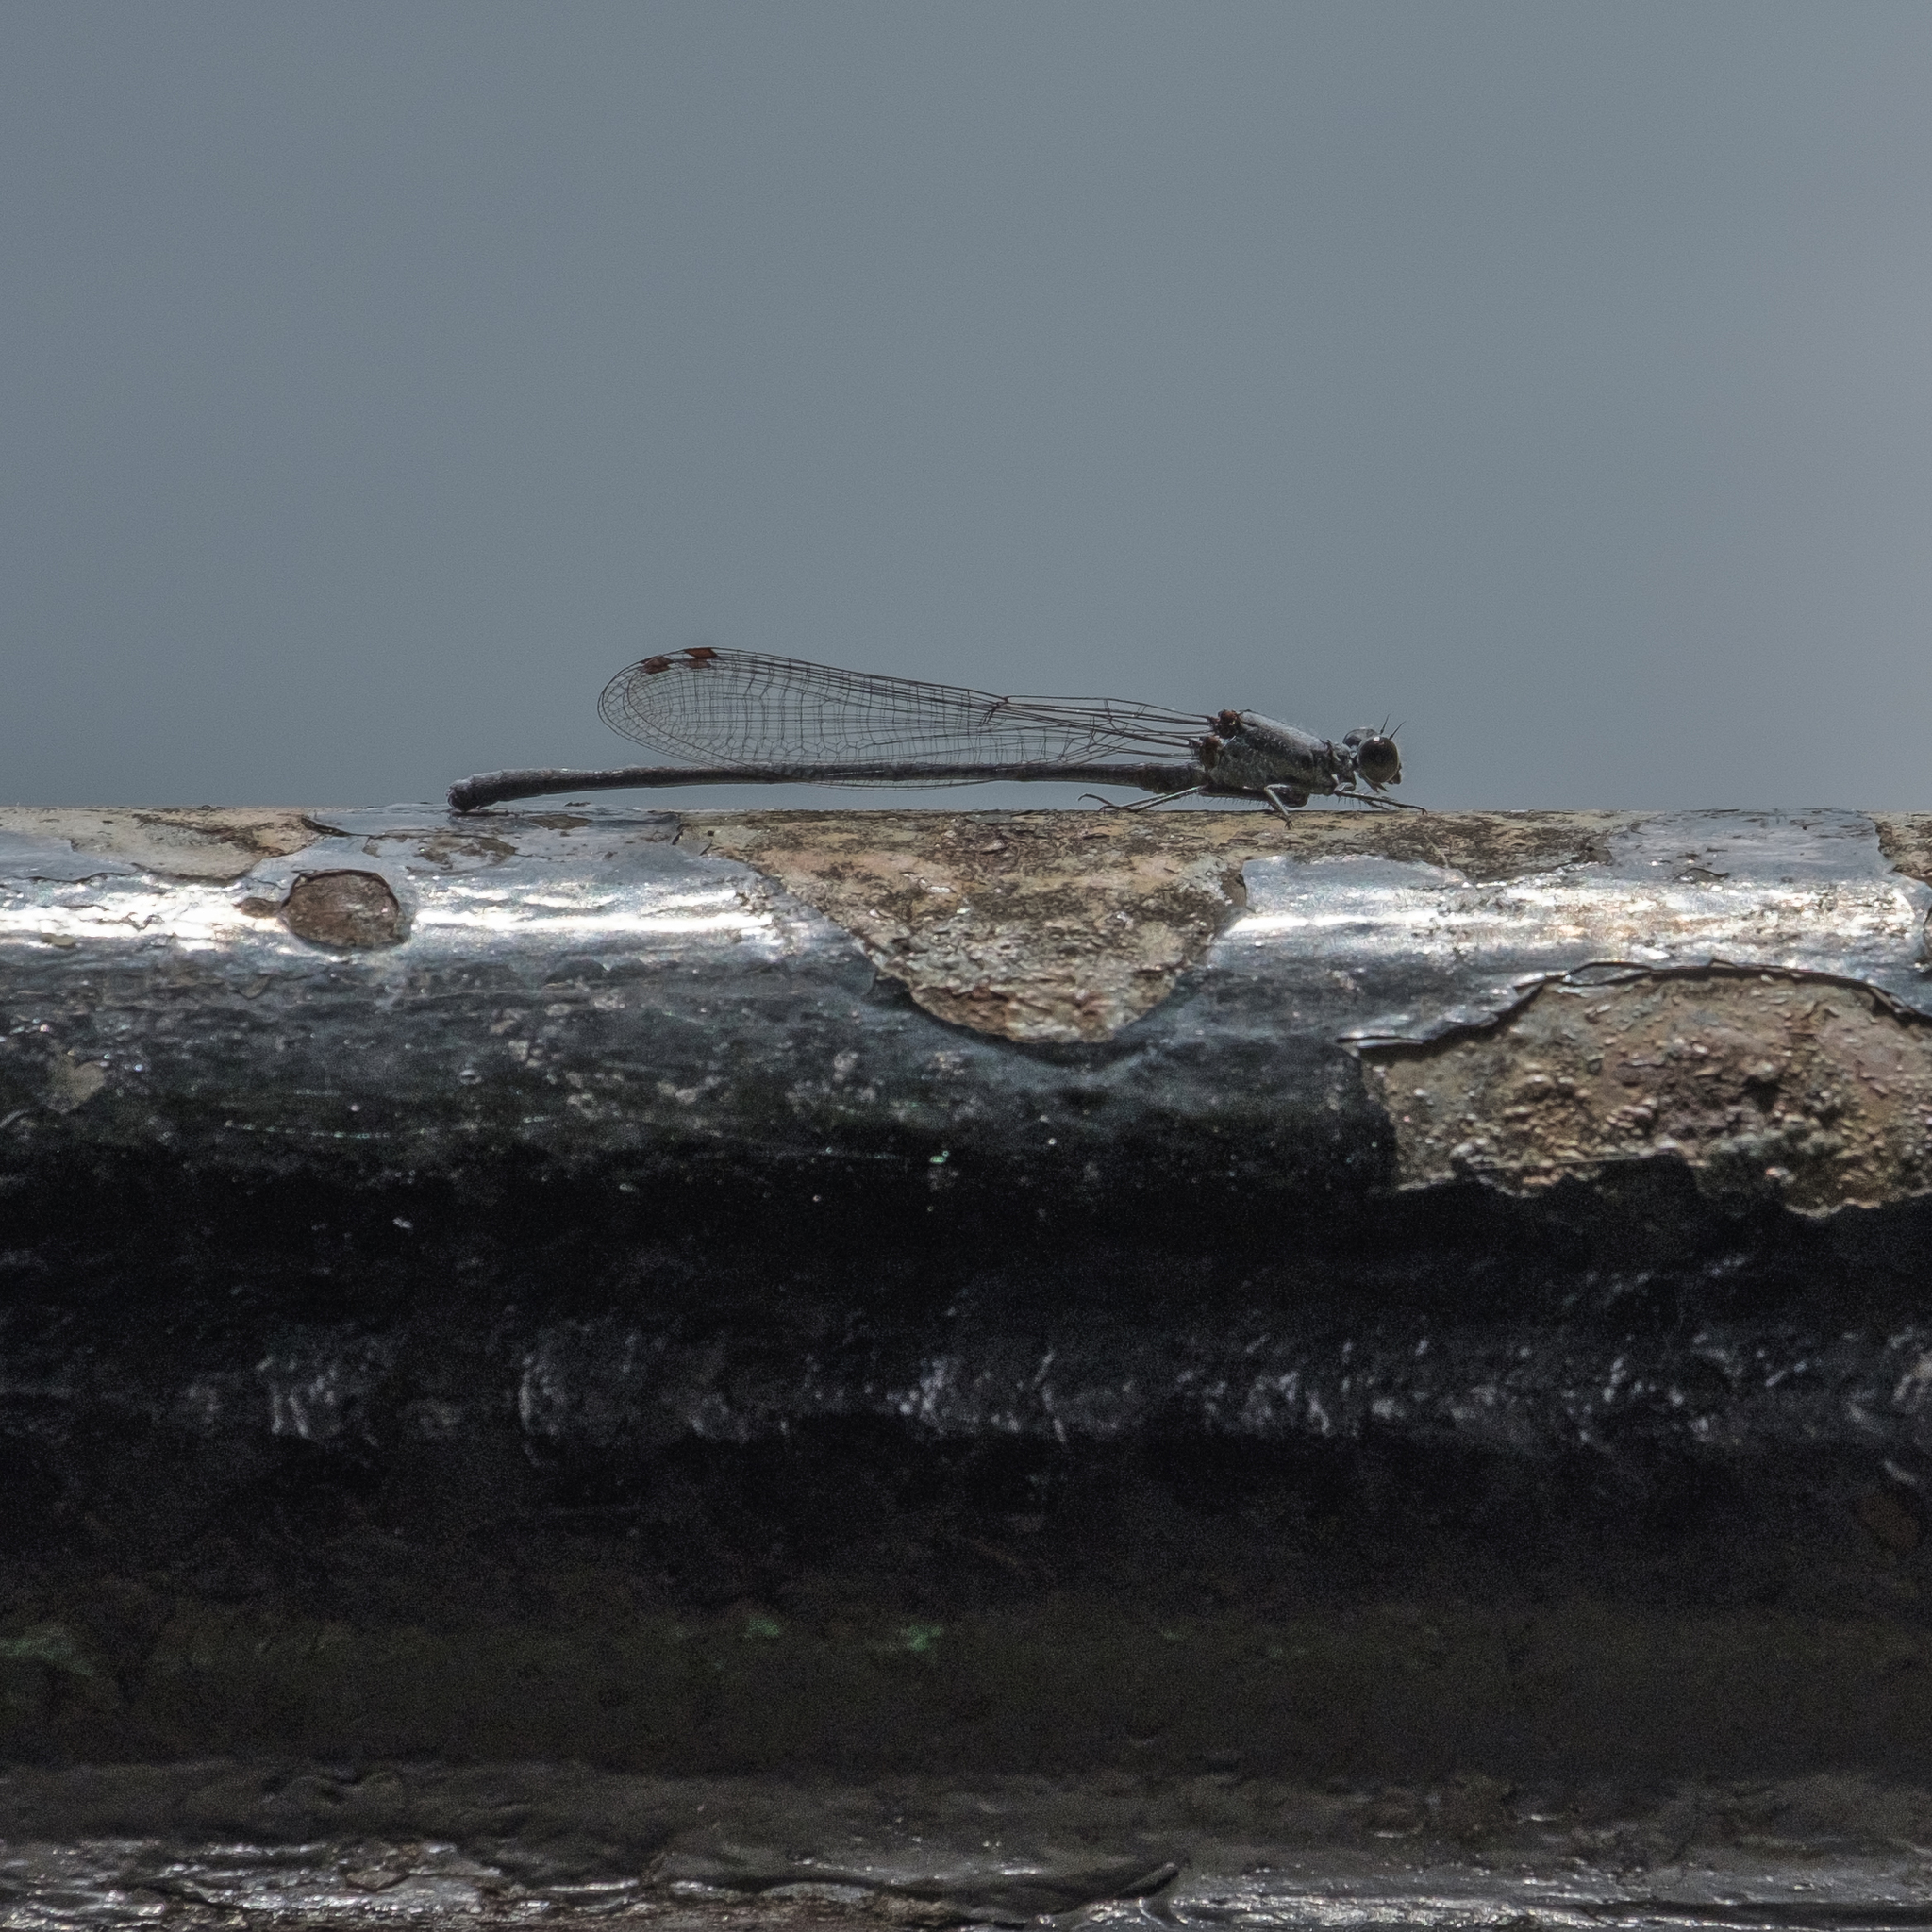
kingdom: Animalia
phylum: Arthropoda
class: Insecta
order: Odonata
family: Coenagrionidae
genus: Argia
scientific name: Argia moesta
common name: Powdered dancer
